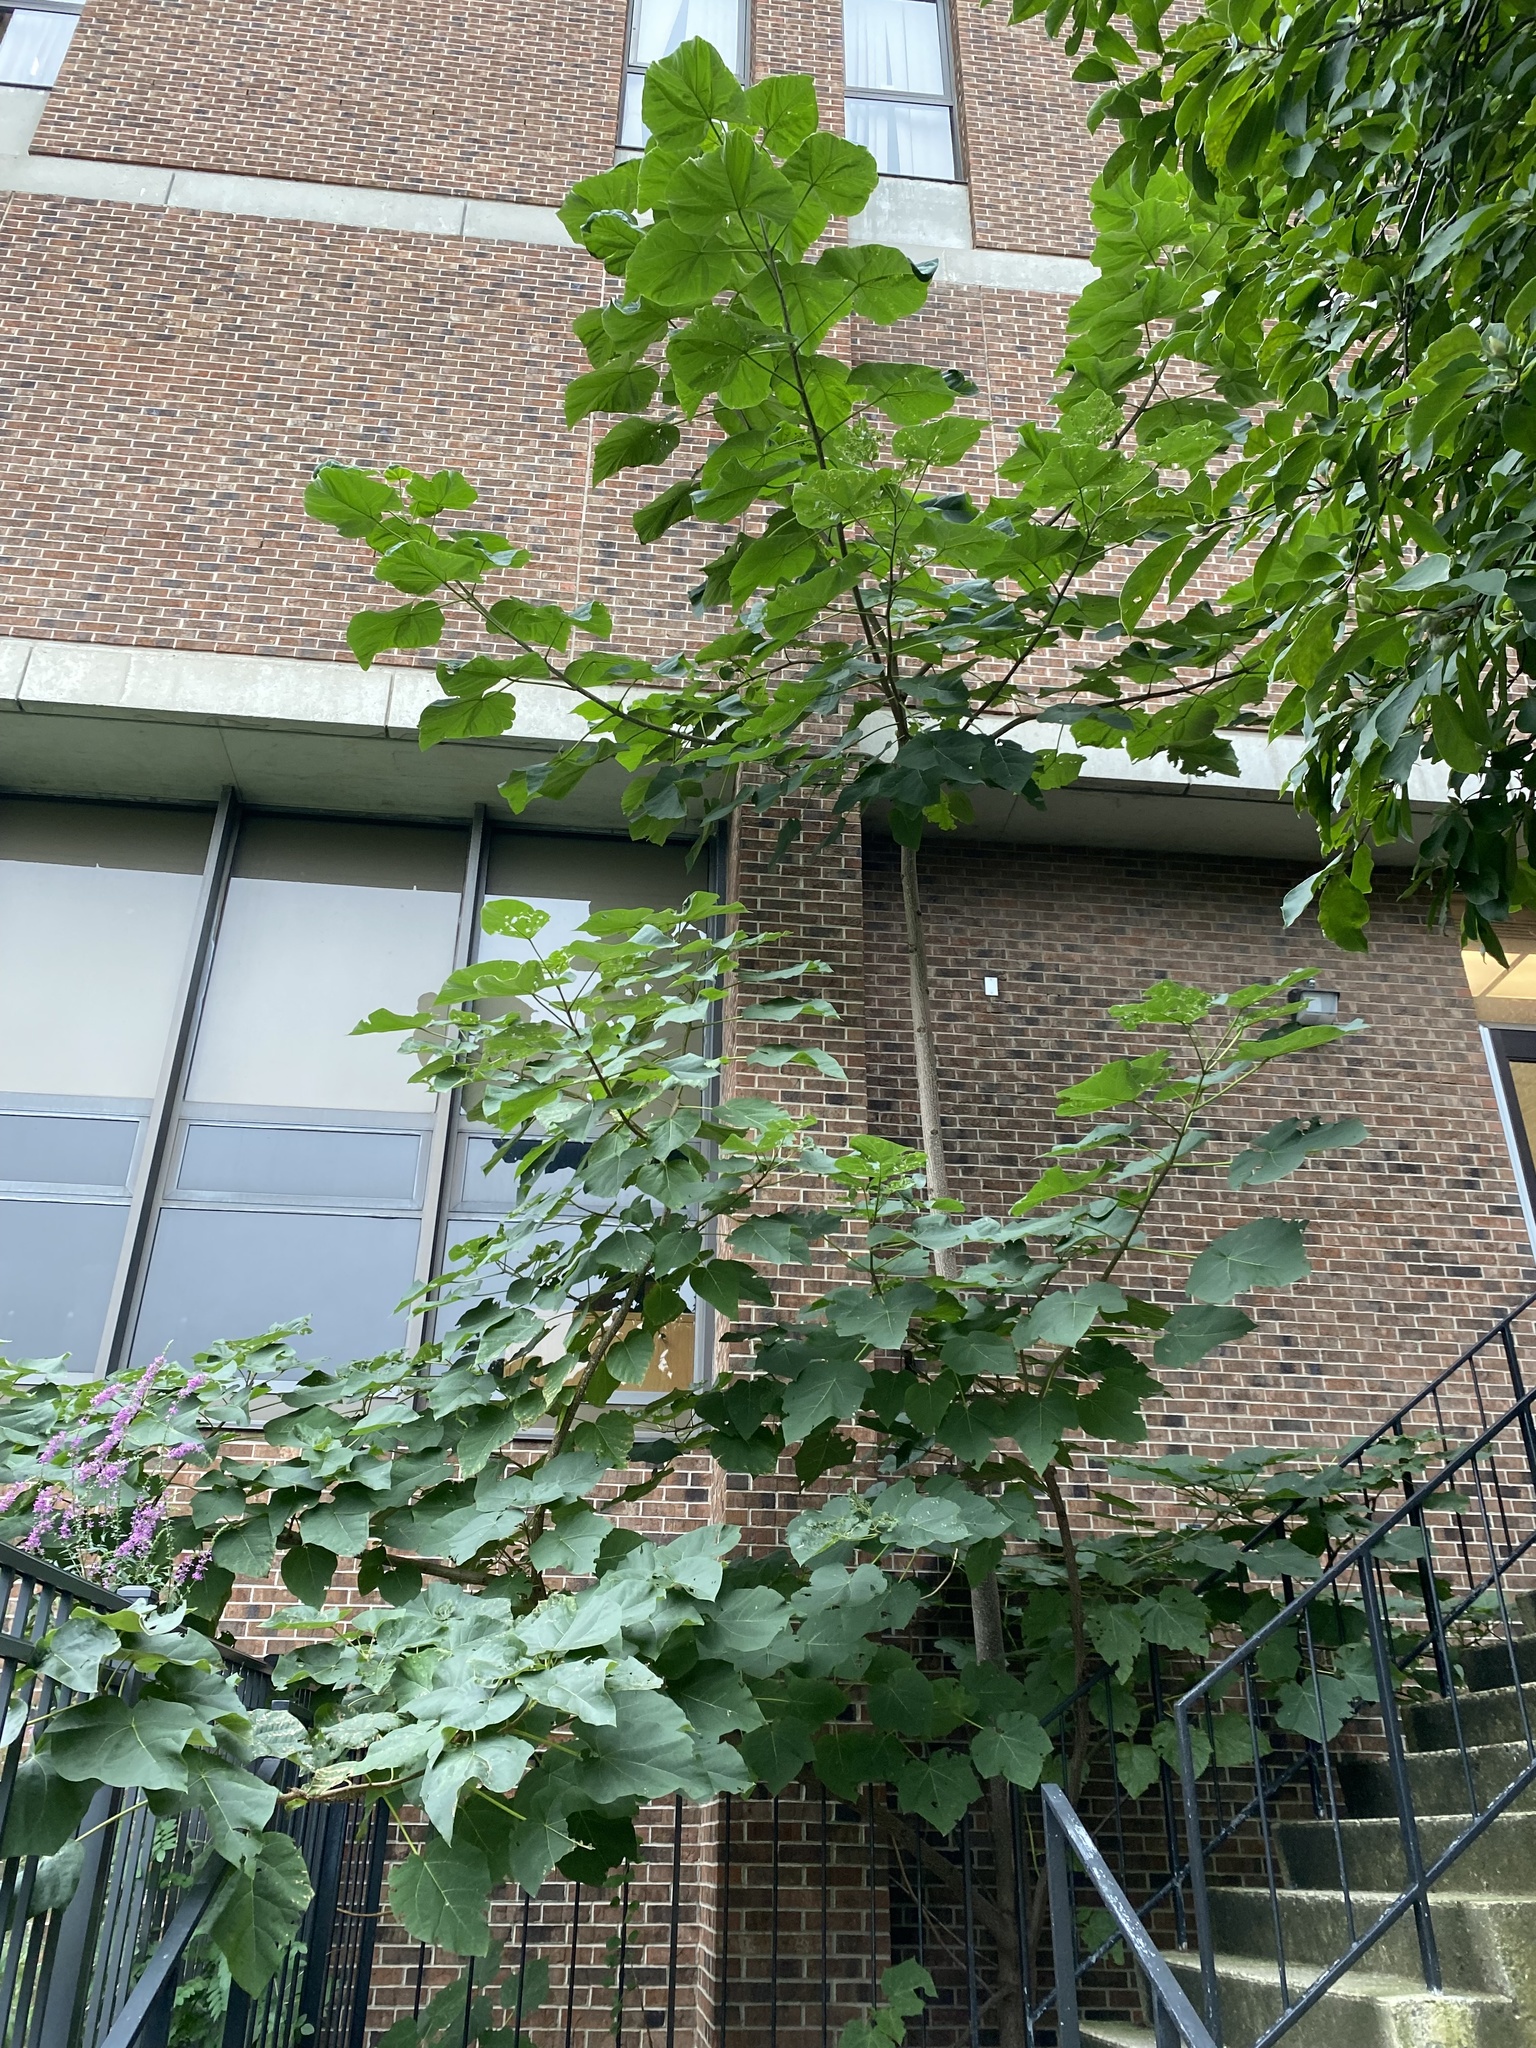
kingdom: Plantae
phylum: Tracheophyta
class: Magnoliopsida
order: Lamiales
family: Paulowniaceae
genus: Paulownia
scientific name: Paulownia tomentosa
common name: Foxglove-tree
